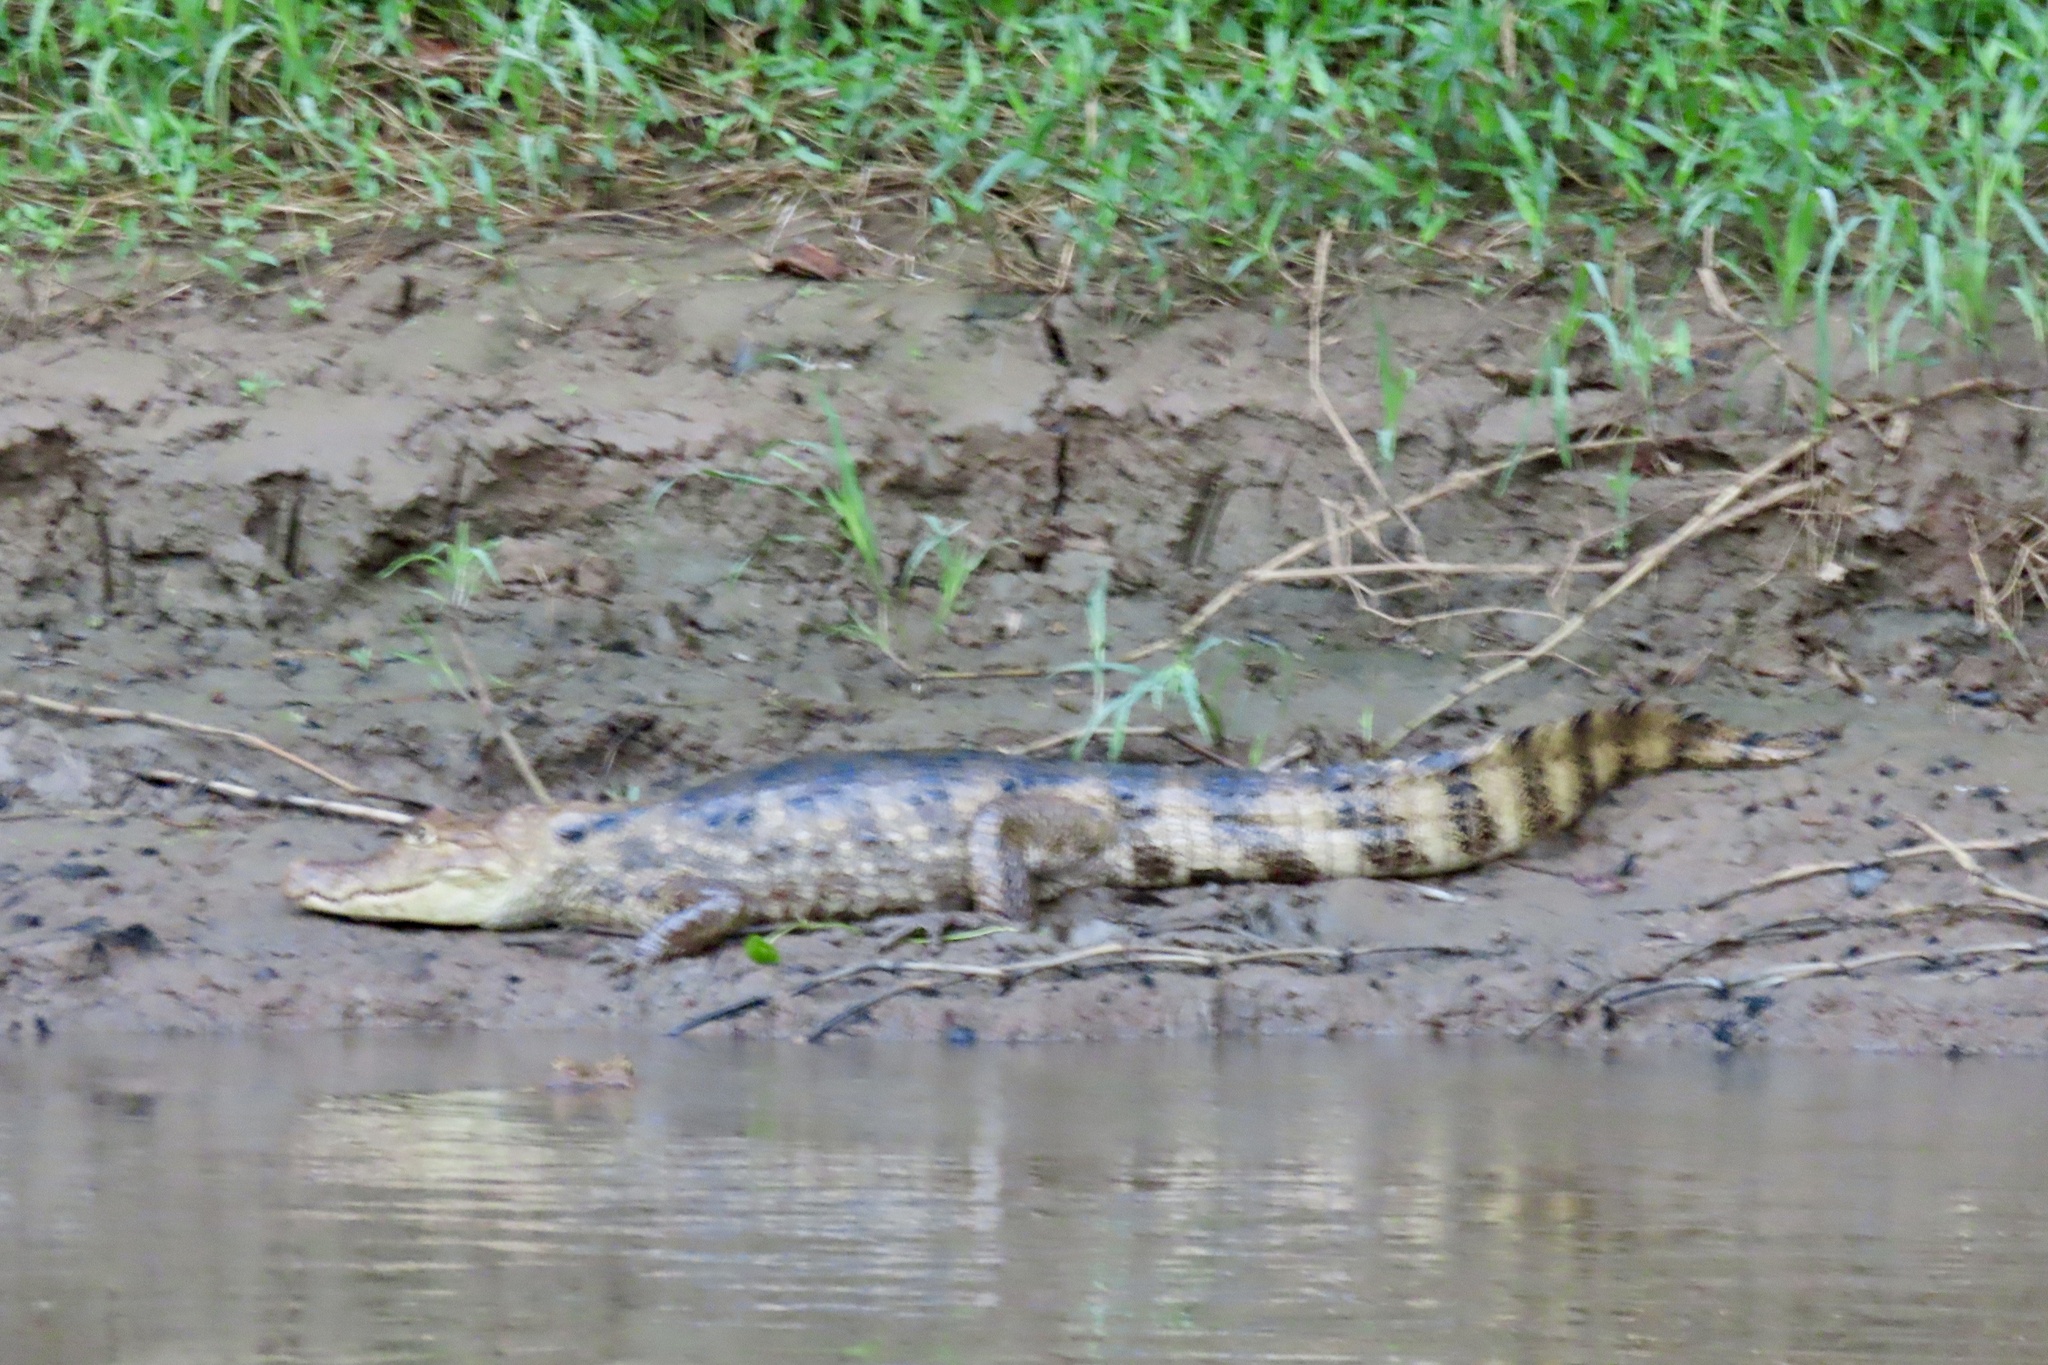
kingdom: Animalia
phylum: Chordata
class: Crocodylia
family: Alligatoridae
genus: Caiman
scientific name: Caiman crocodilus
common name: Common caiman
